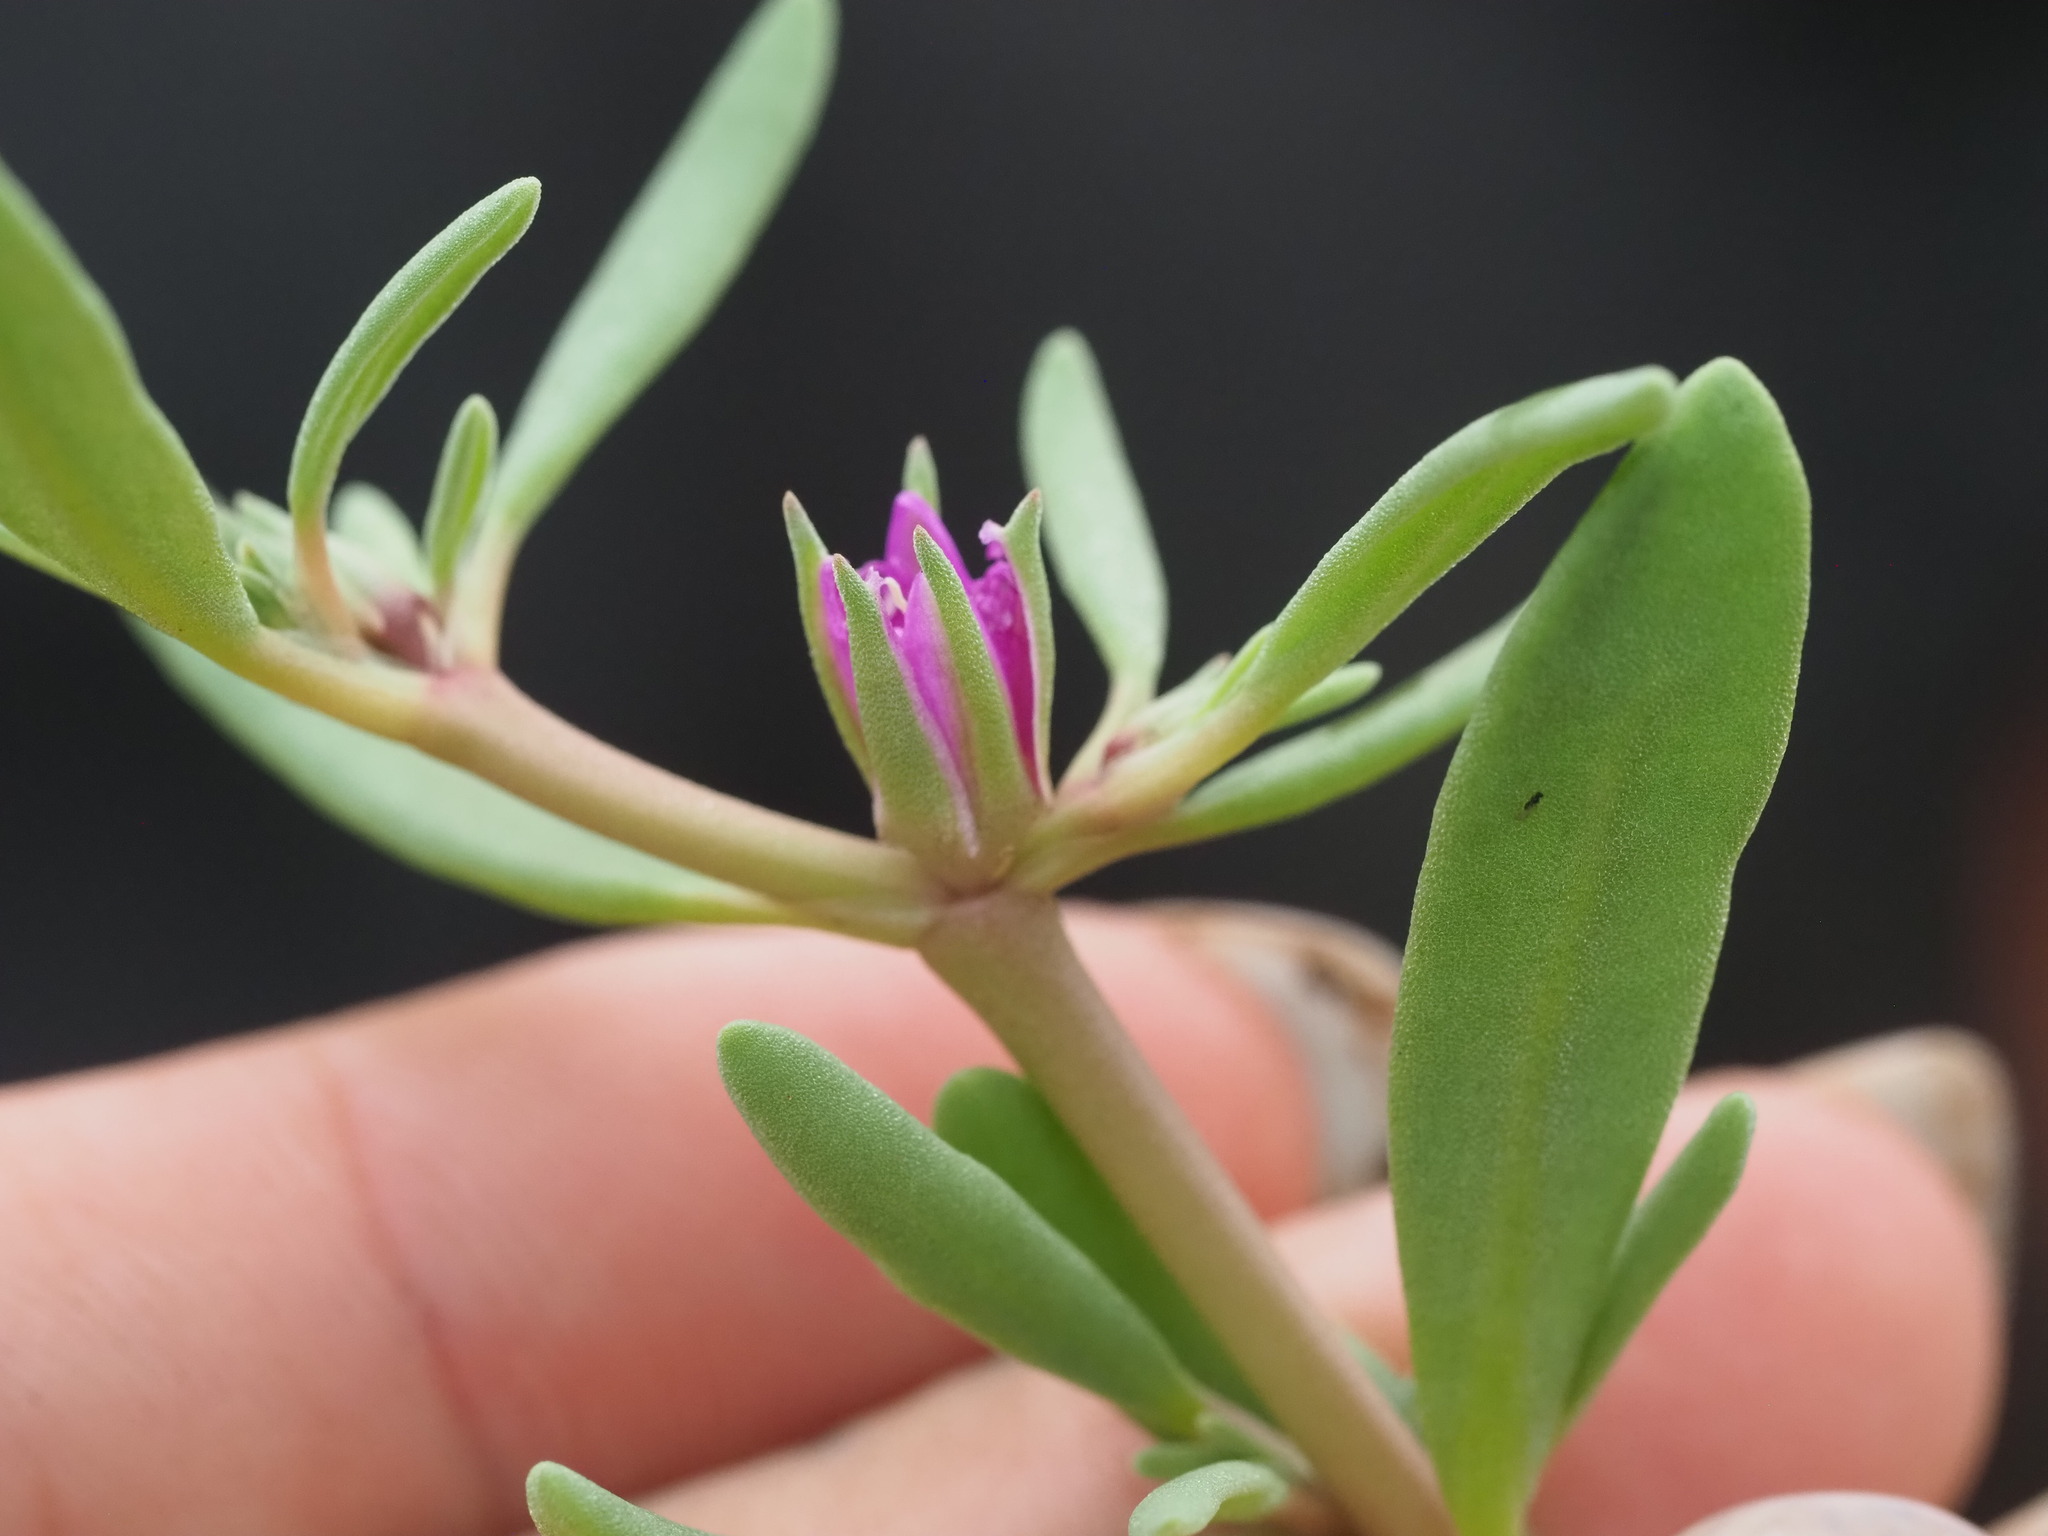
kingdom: Plantae
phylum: Tracheophyta
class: Magnoliopsida
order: Caryophyllales
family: Aizoaceae
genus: Sesuvium
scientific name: Sesuvium revolutifolium
